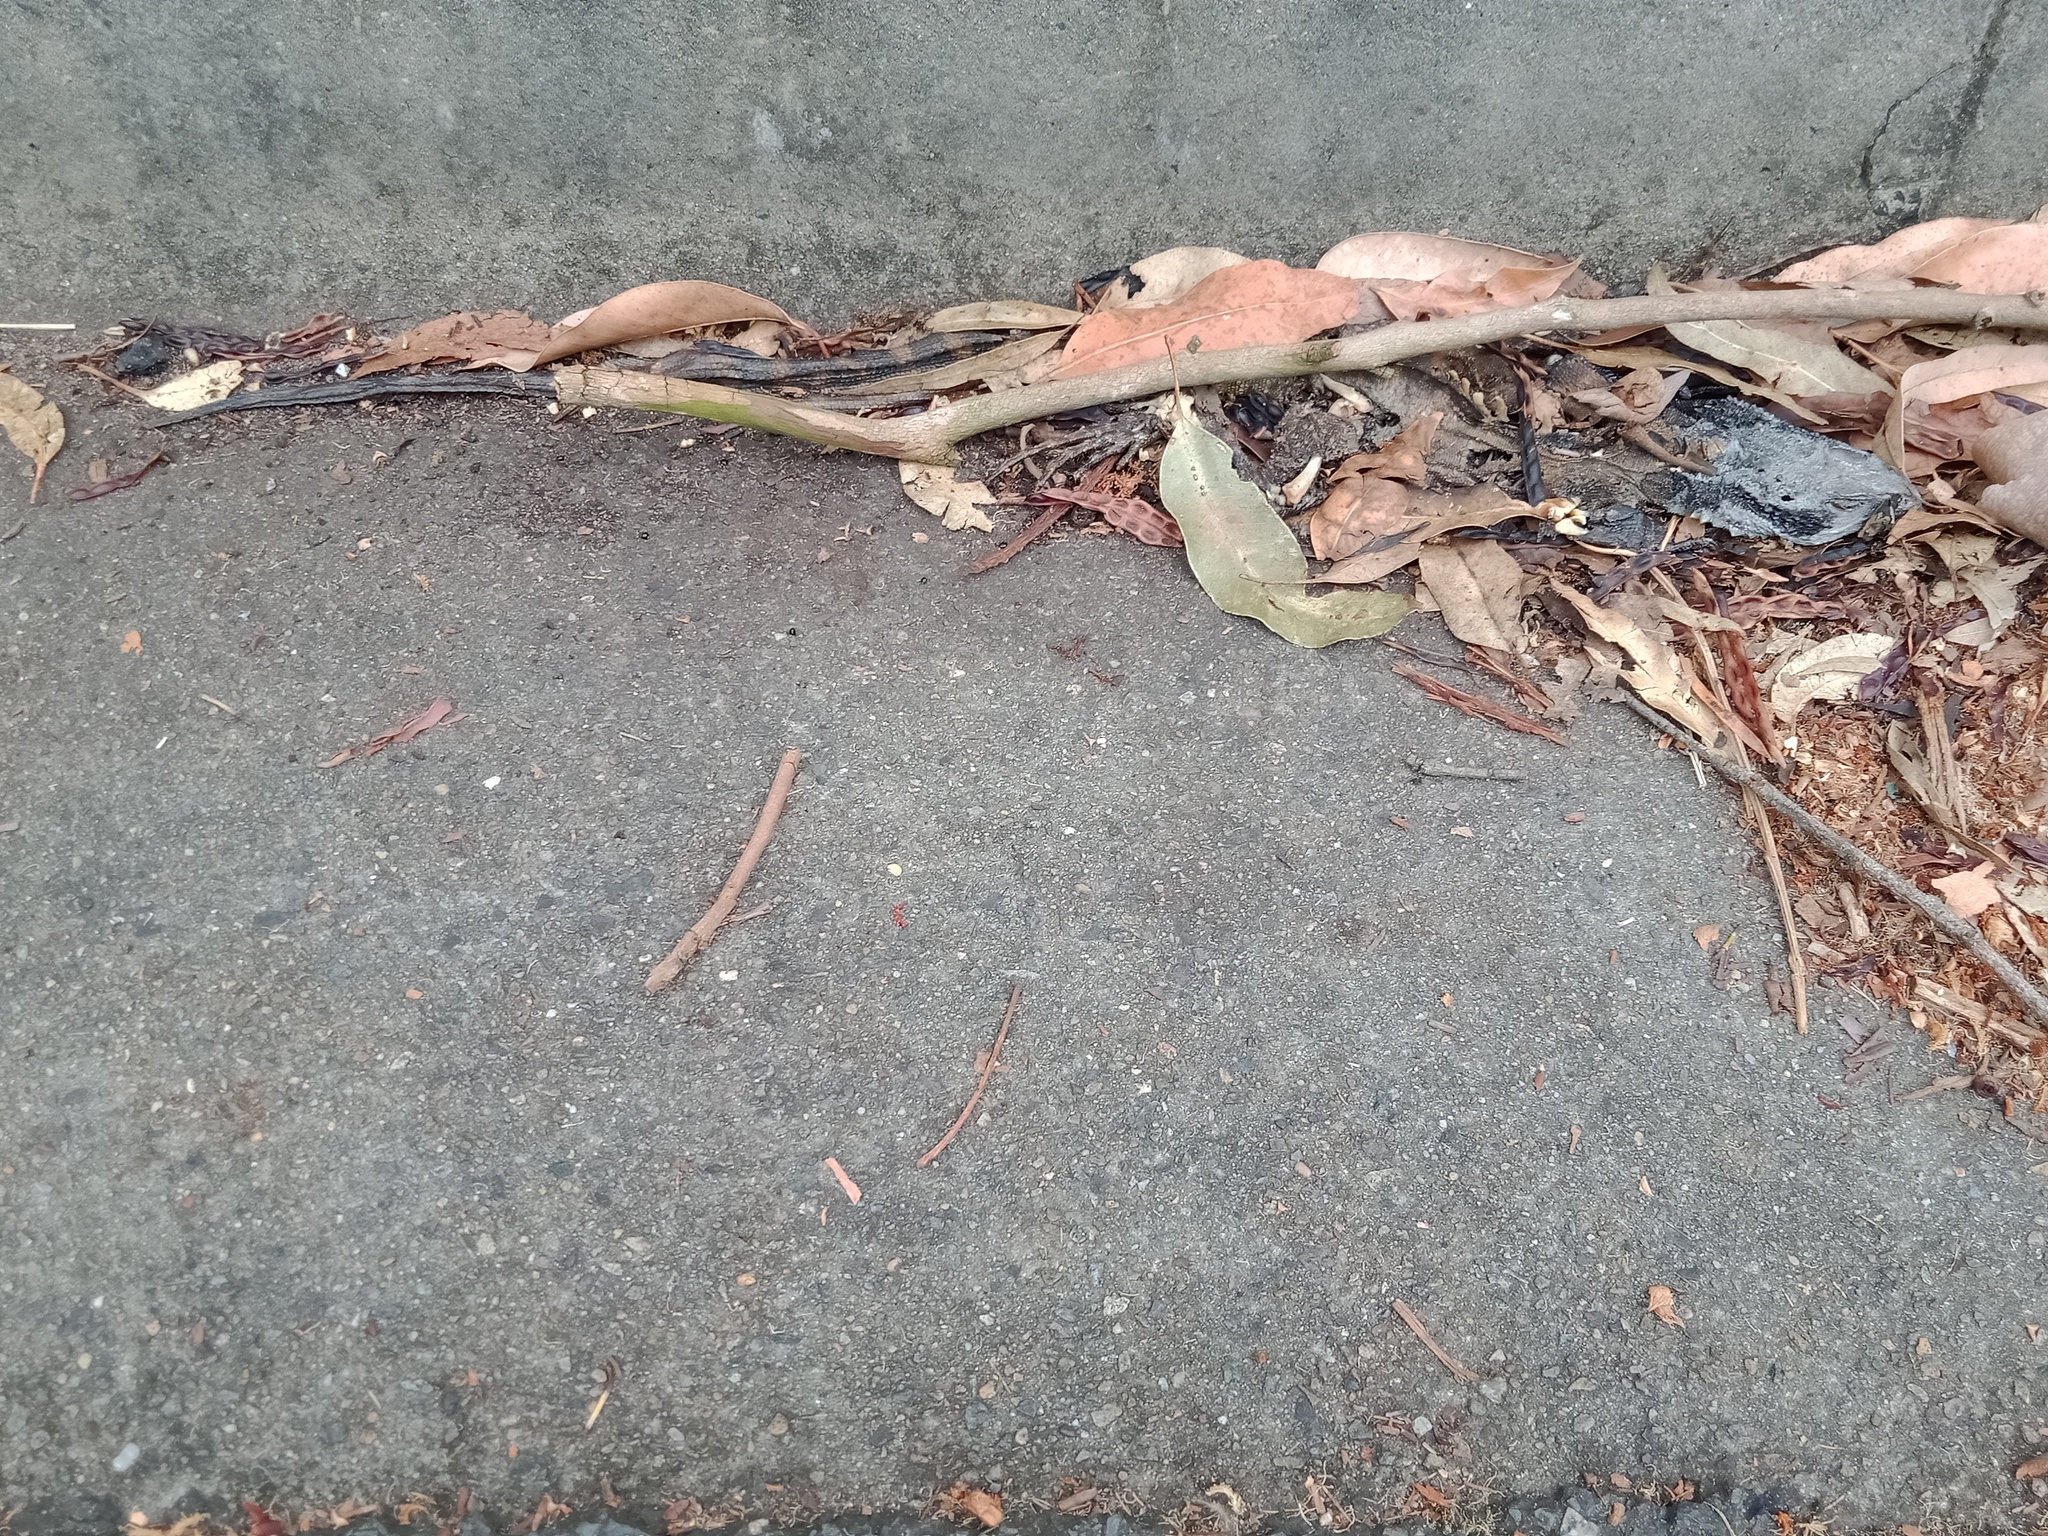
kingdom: Animalia
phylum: Chordata
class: Squamata
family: Agamidae
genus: Intellagama
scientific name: Intellagama lesueurii
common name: Eastern water dragon
